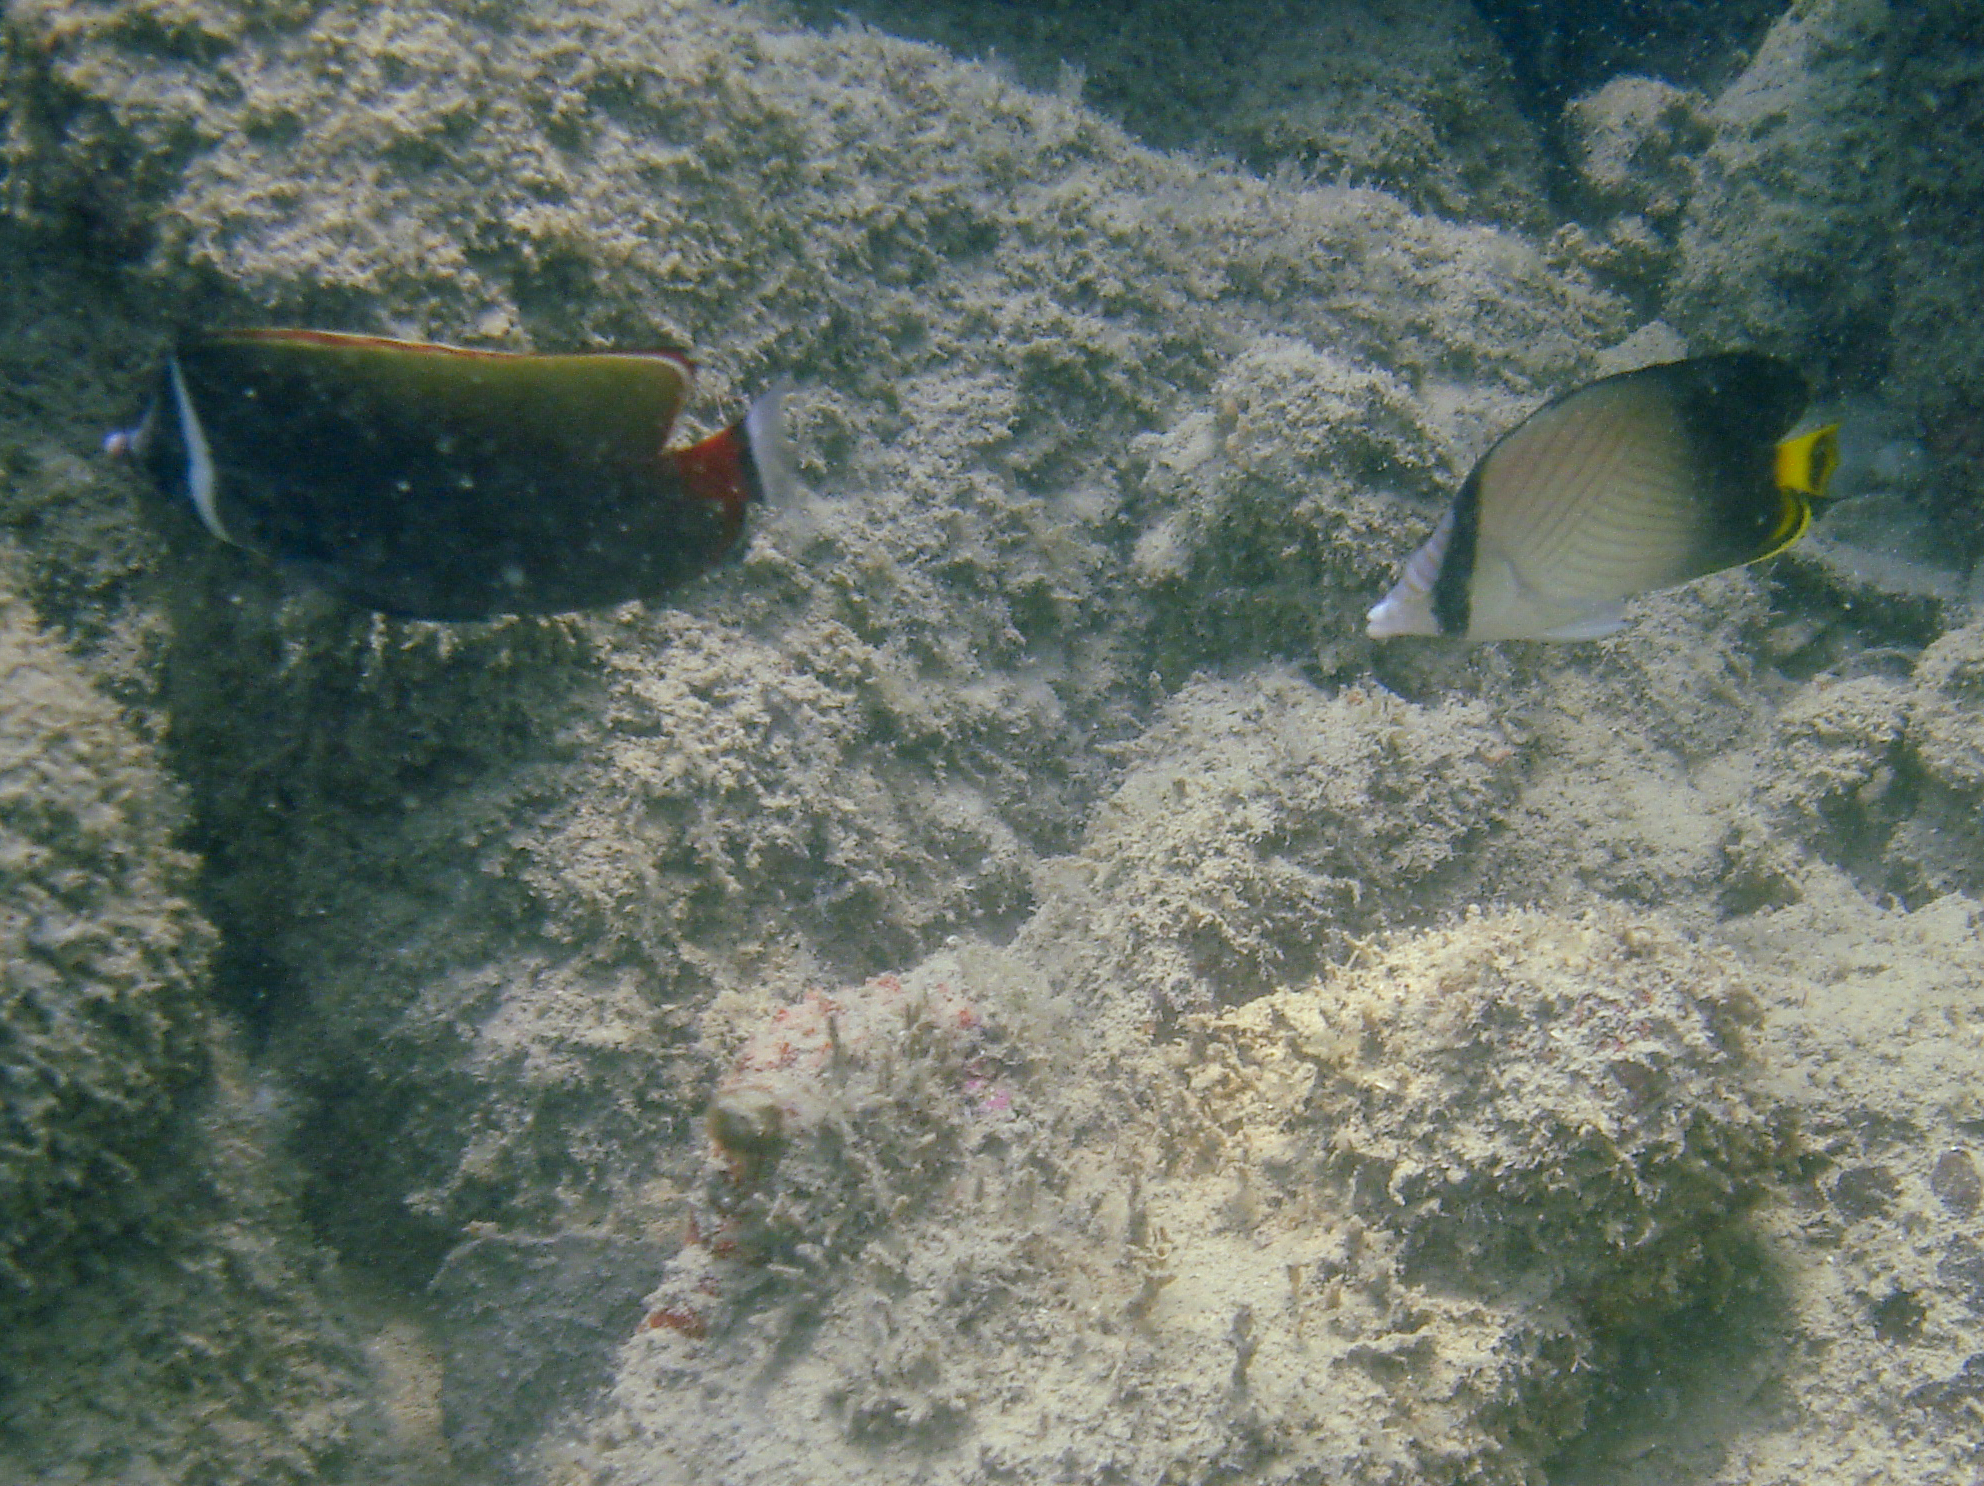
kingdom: Animalia
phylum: Chordata
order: Perciformes
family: Chaetodontidae
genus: Chaetodon
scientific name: Chaetodon decussatus
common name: Indian vagabond butterflyfish
